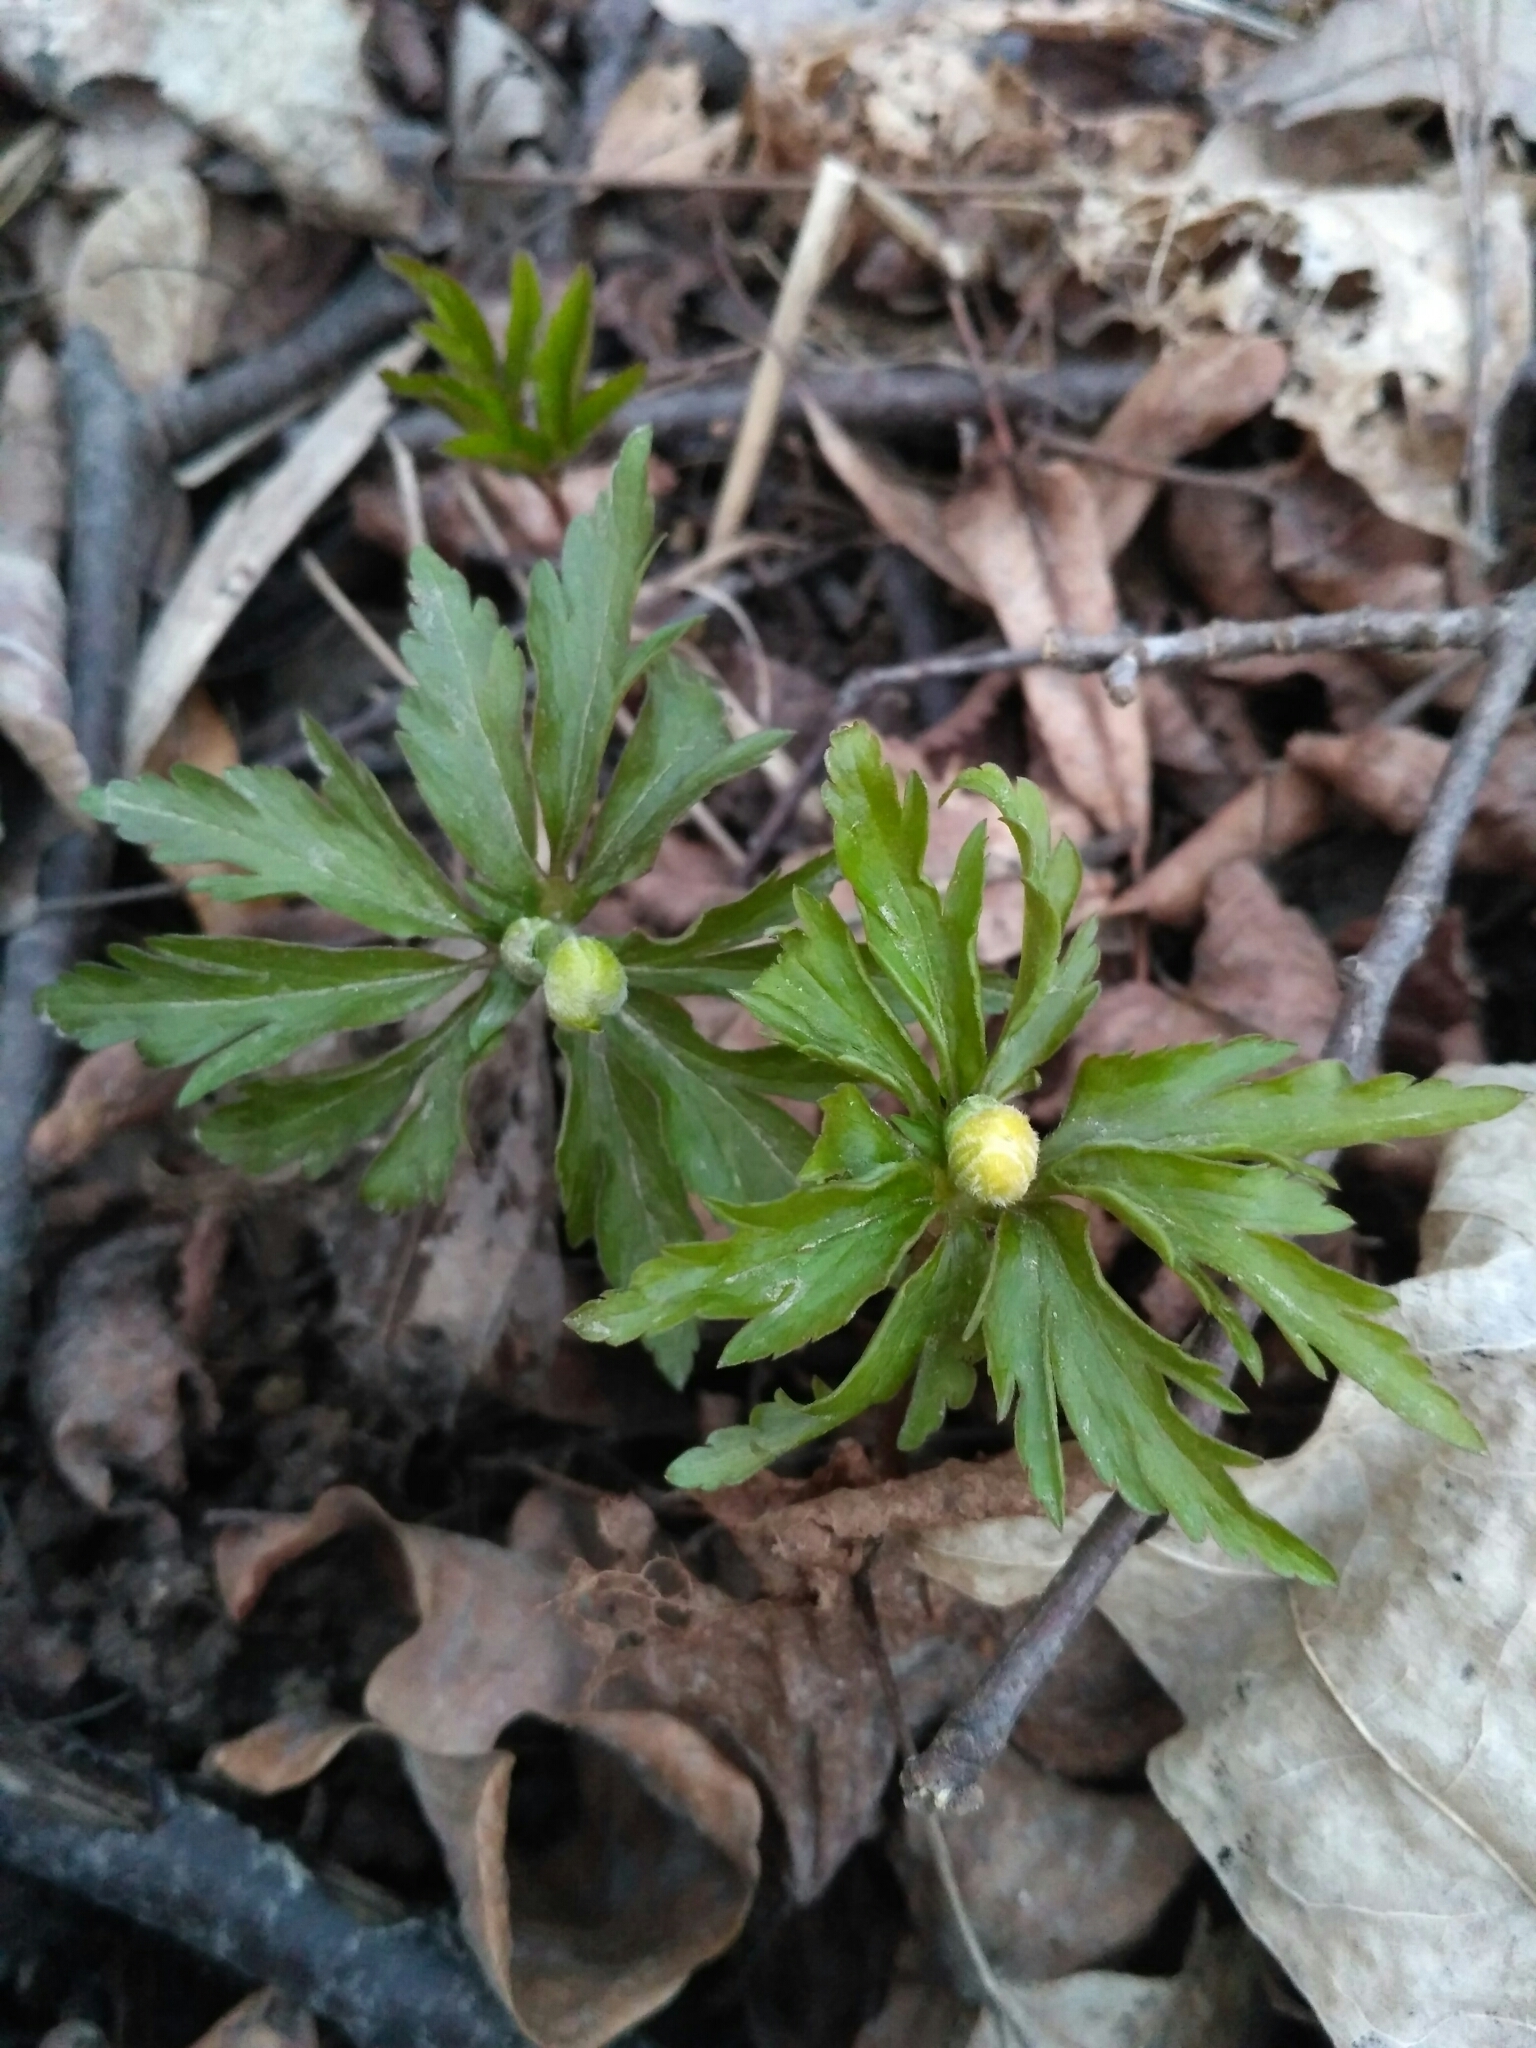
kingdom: Plantae
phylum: Tracheophyta
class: Magnoliopsida
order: Ranunculales
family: Ranunculaceae
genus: Anemone
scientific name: Anemone ranunculoides
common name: Yellow anemone
